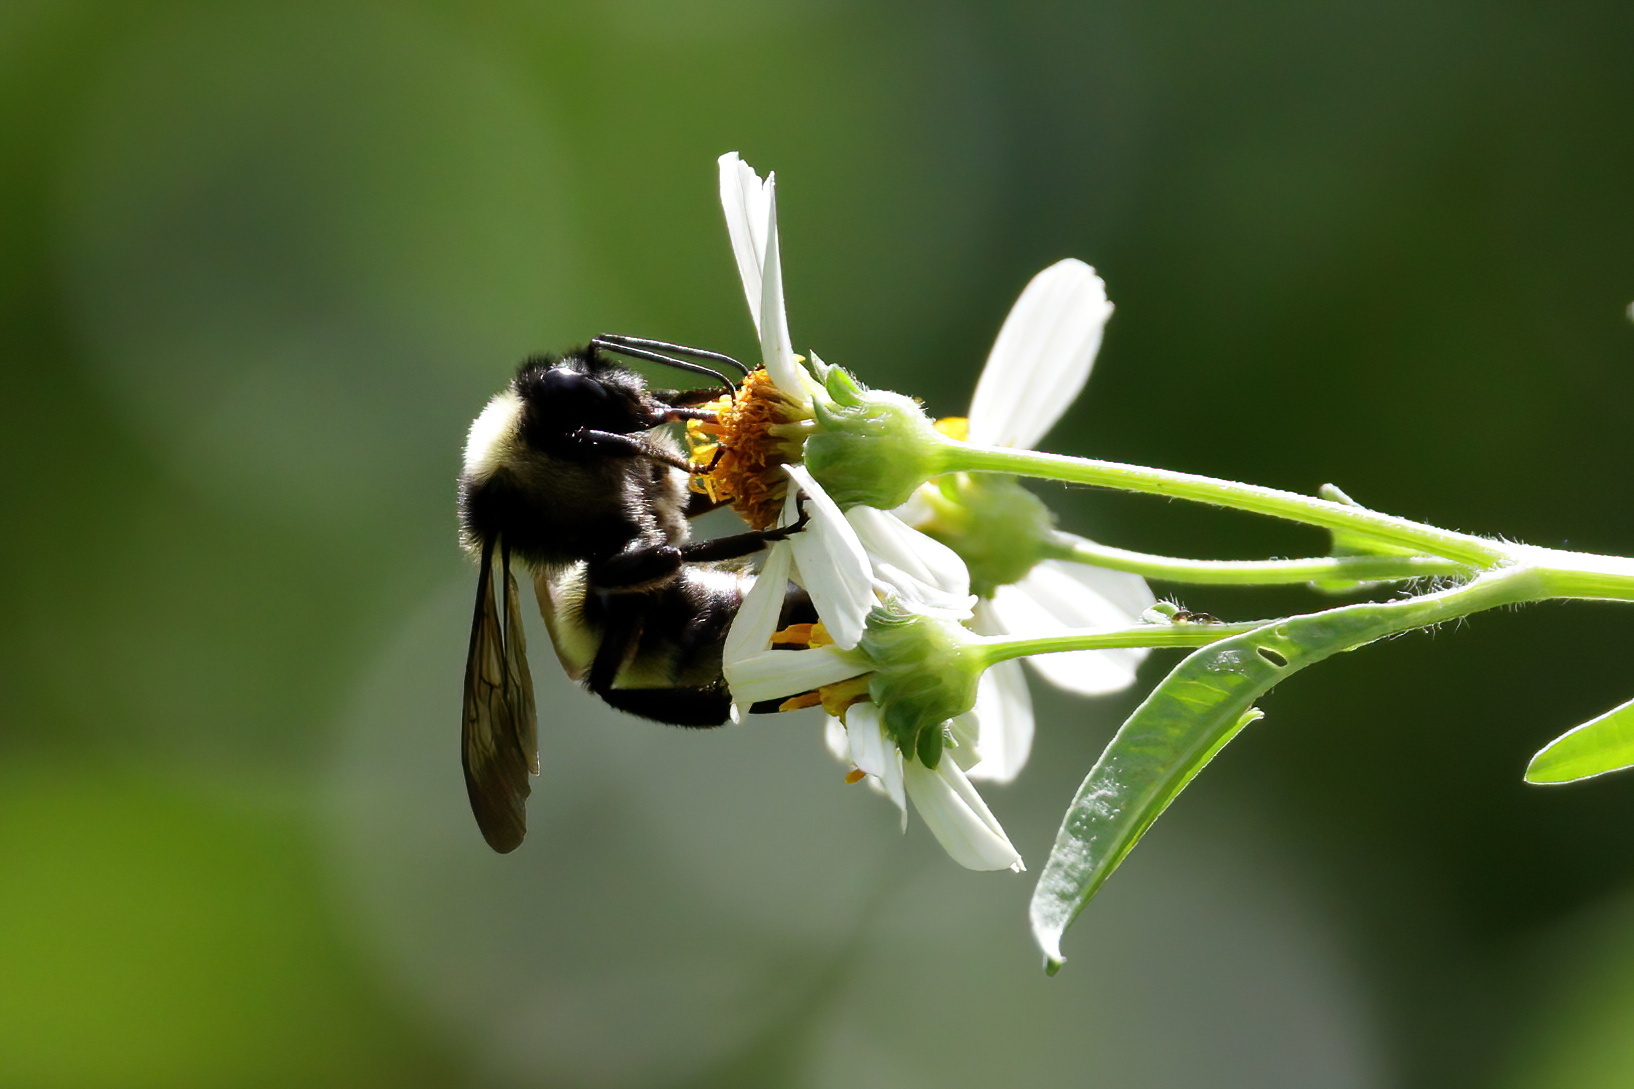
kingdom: Animalia
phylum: Arthropoda
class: Insecta
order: Hymenoptera
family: Apidae
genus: Bombus
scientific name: Bombus pensylvanicus
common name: Bumble bee
